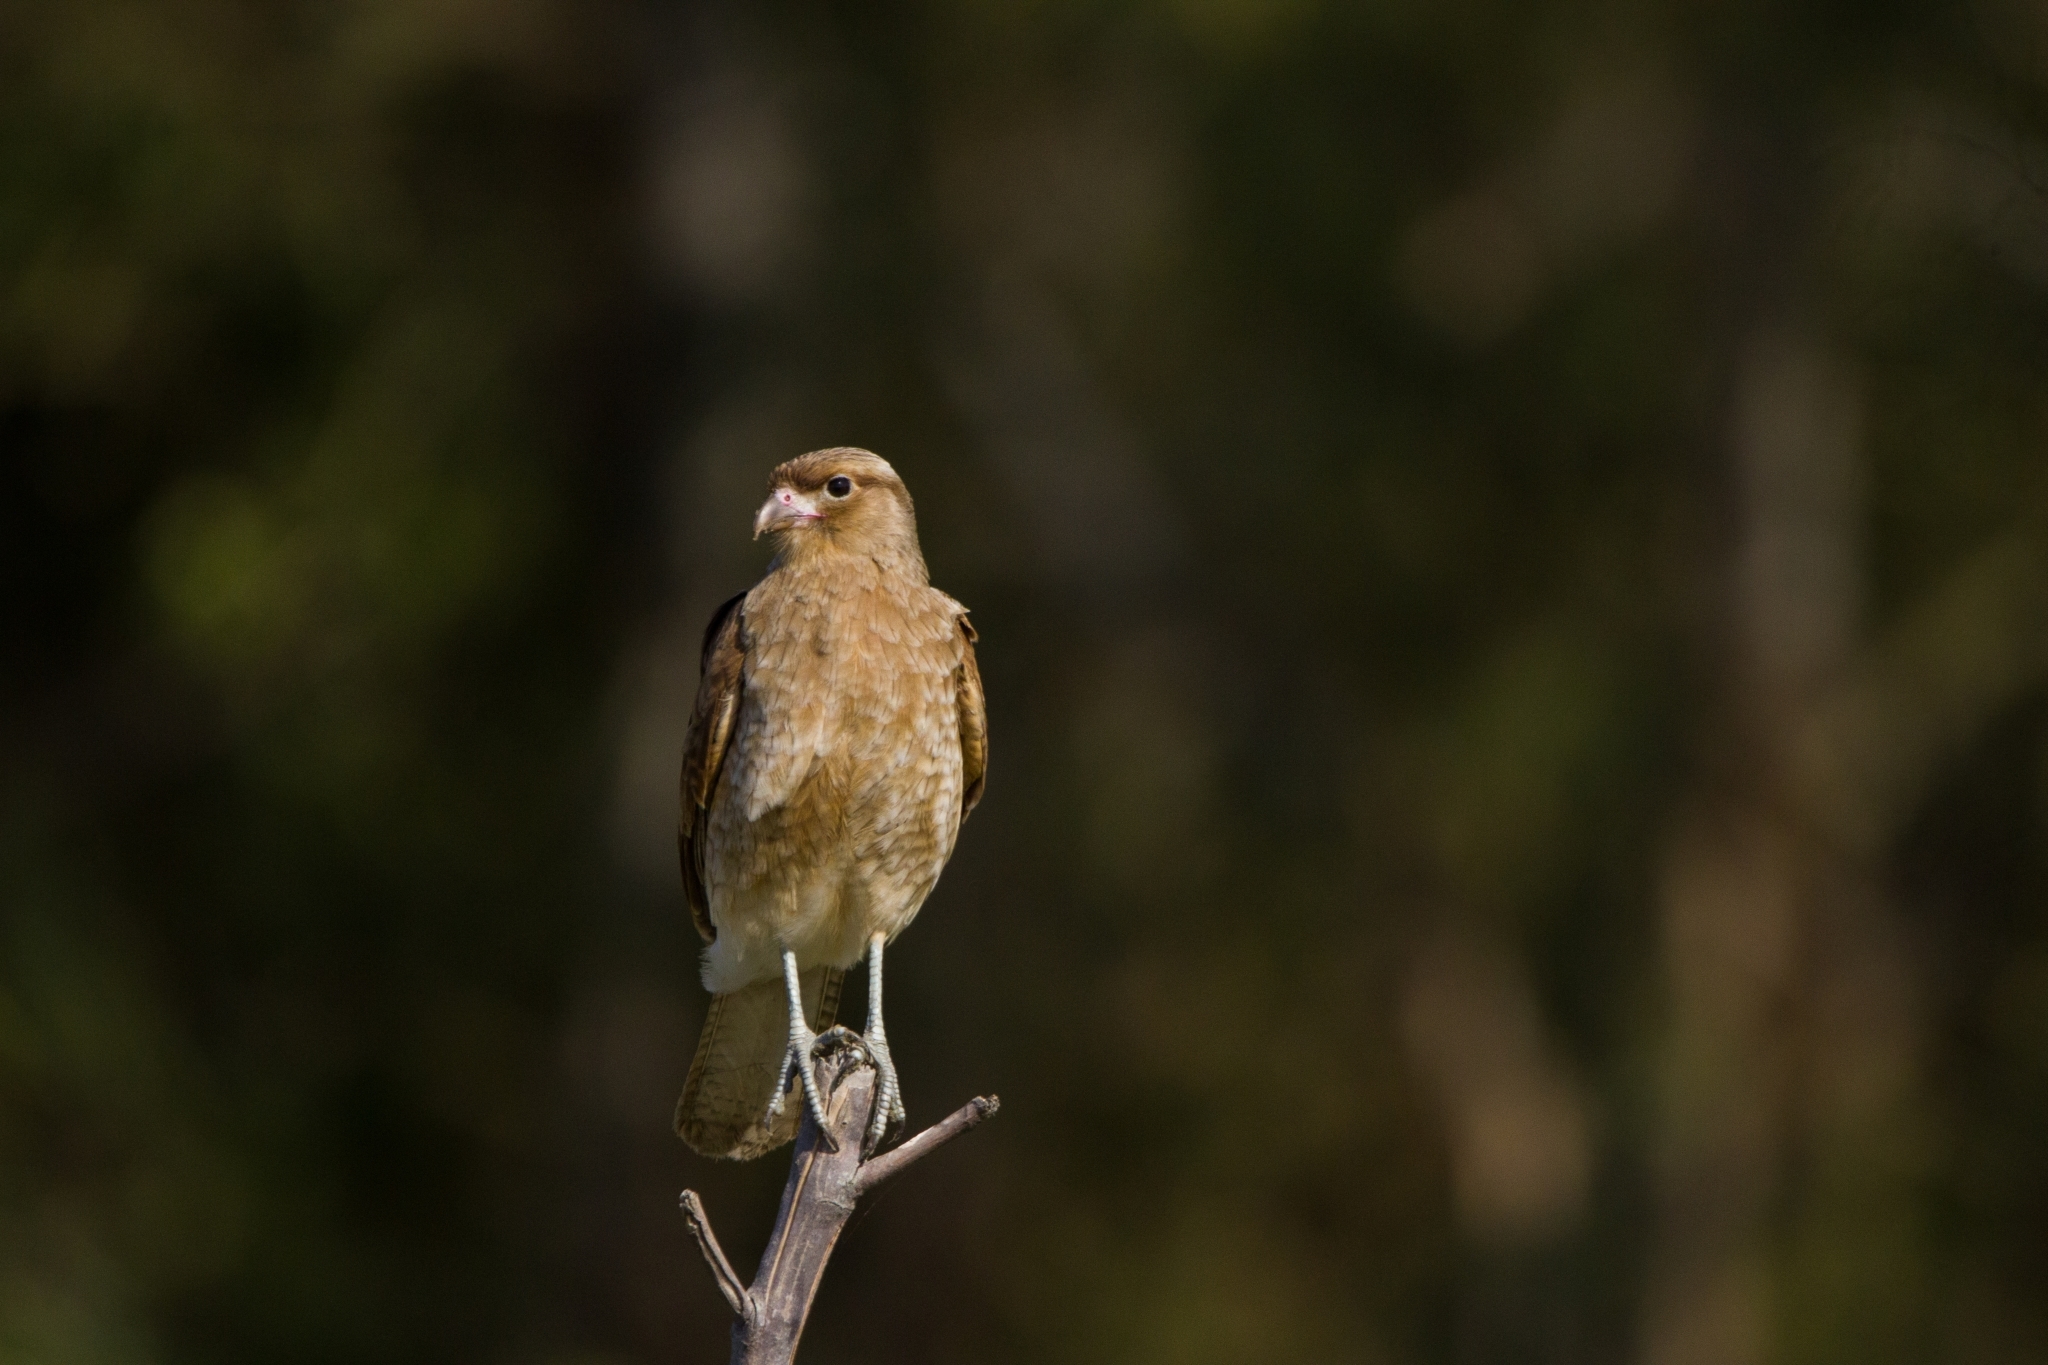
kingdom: Animalia
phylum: Chordata
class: Aves
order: Falconiformes
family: Falconidae
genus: Daptrius
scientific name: Daptrius
